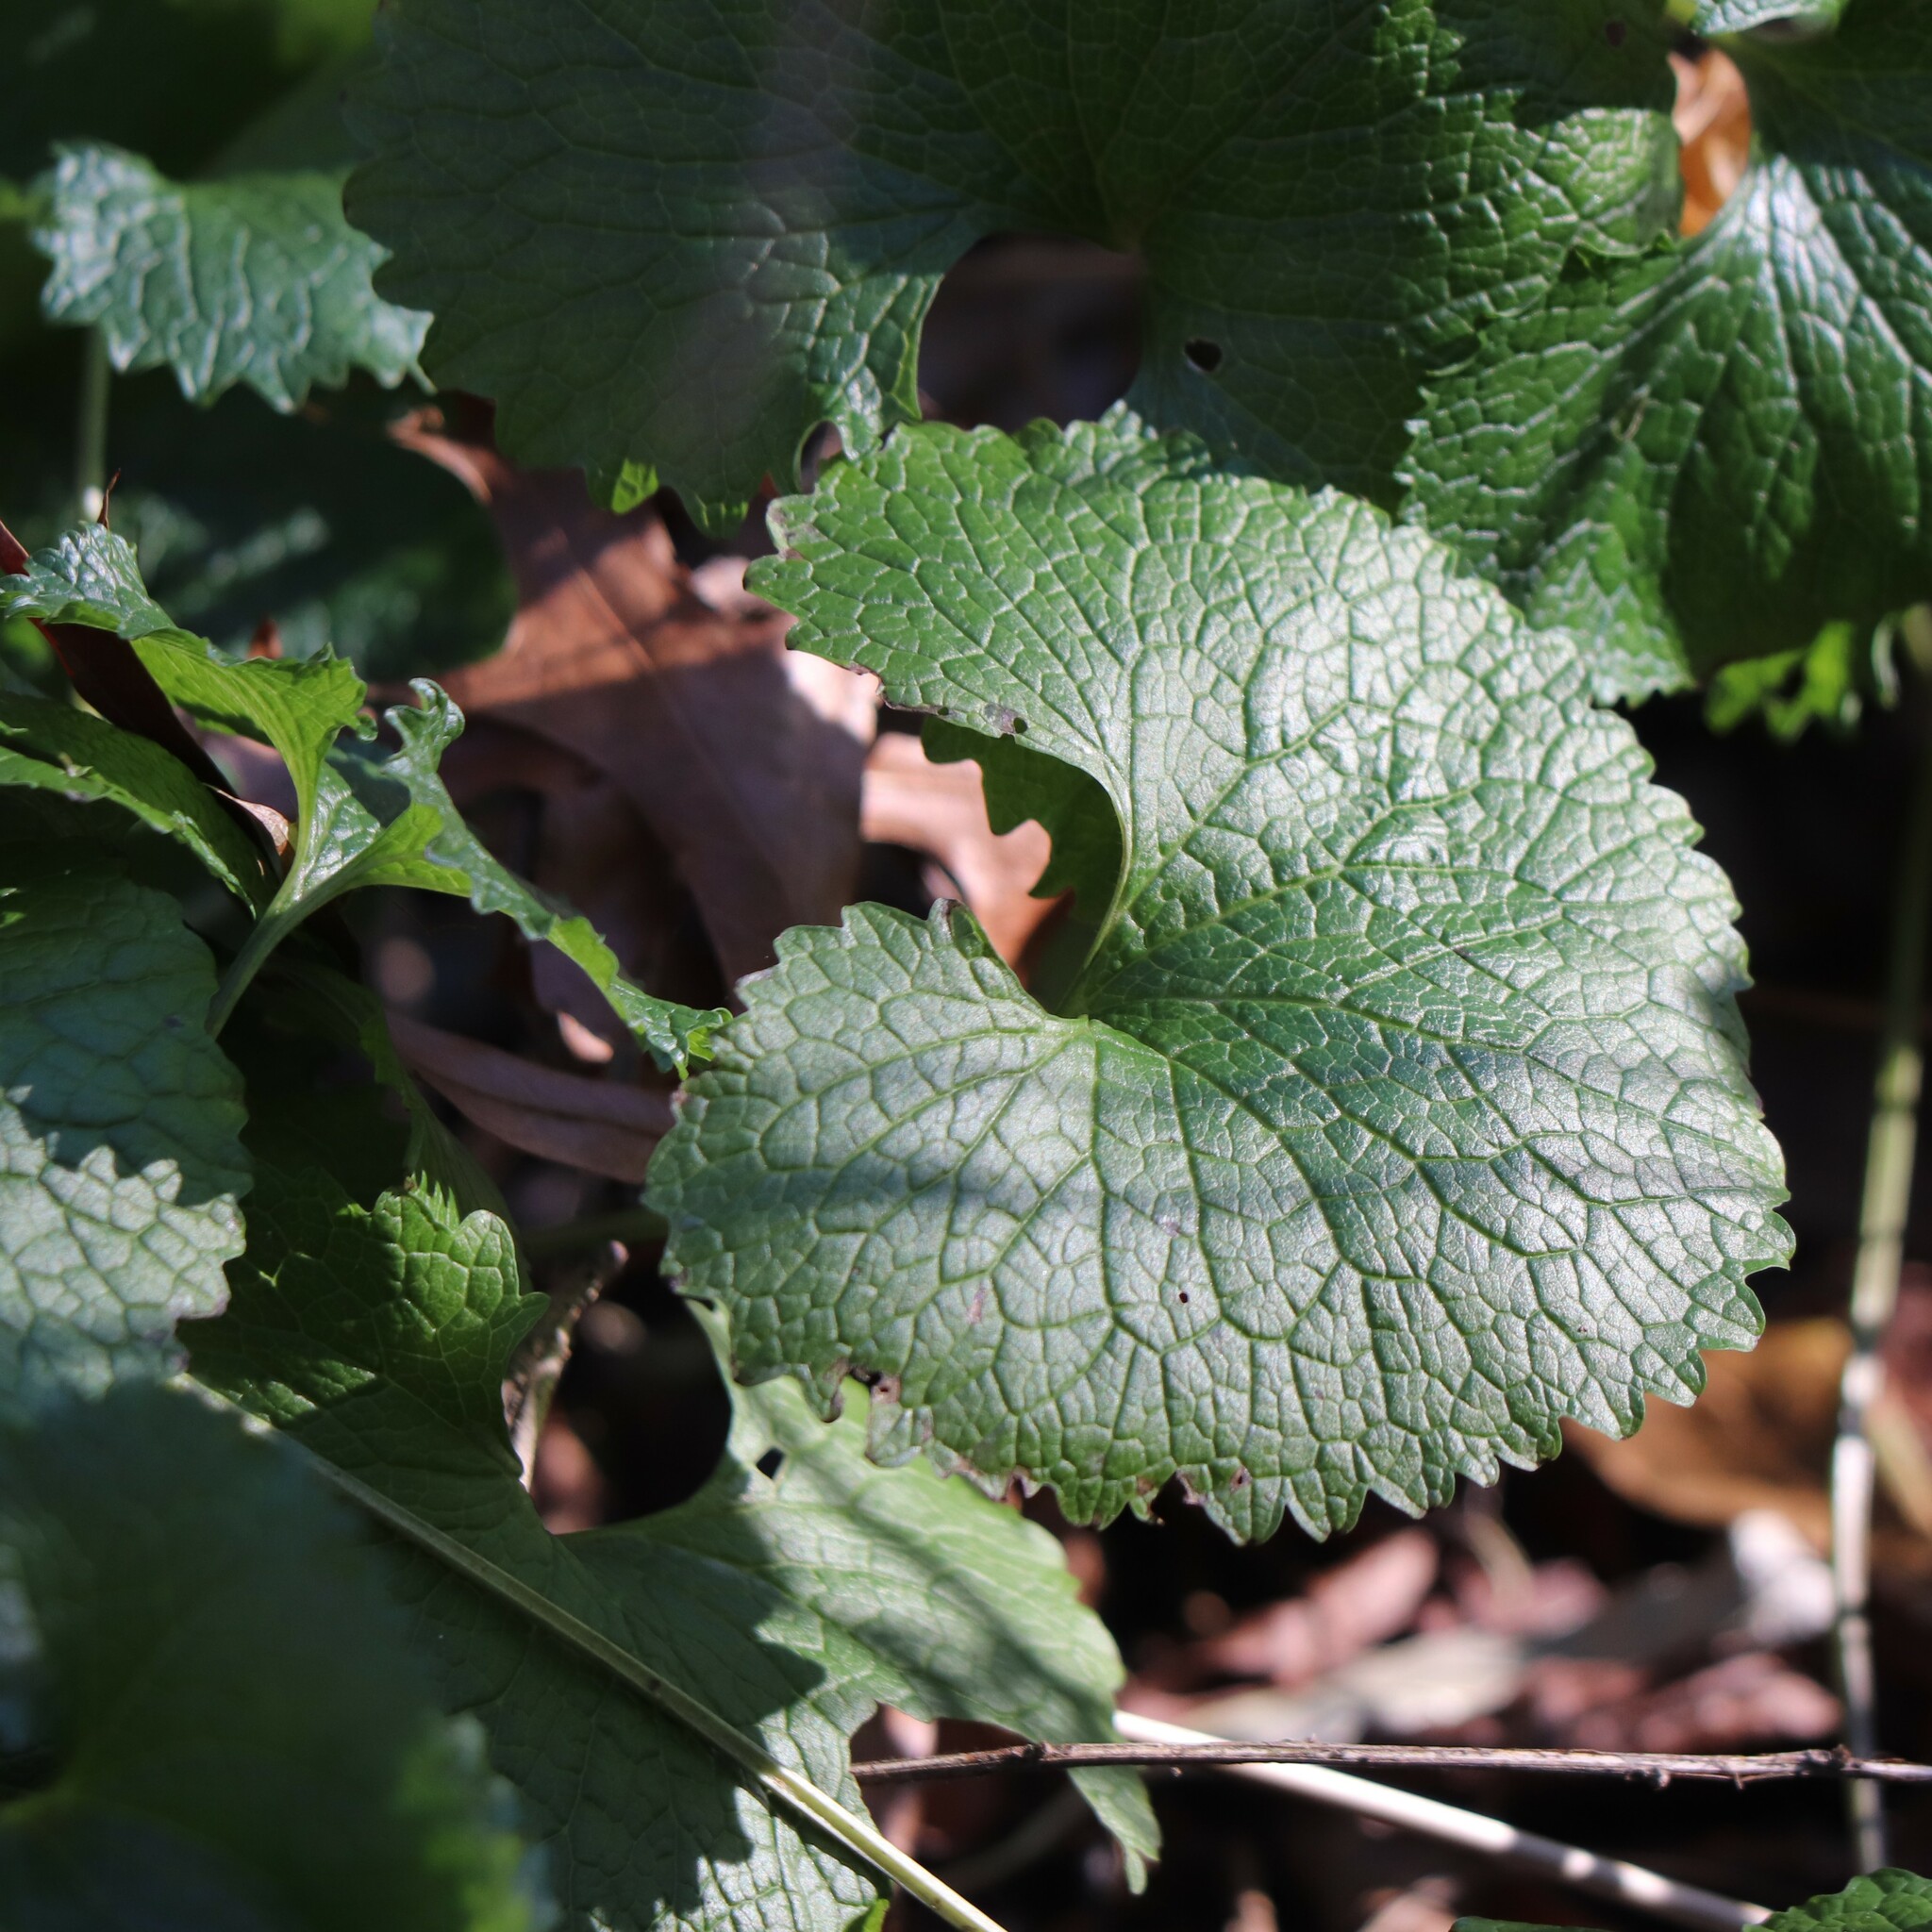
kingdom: Plantae
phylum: Tracheophyta
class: Magnoliopsida
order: Brassicales
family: Brassicaceae
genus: Alliaria
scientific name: Alliaria petiolata
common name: Garlic mustard
